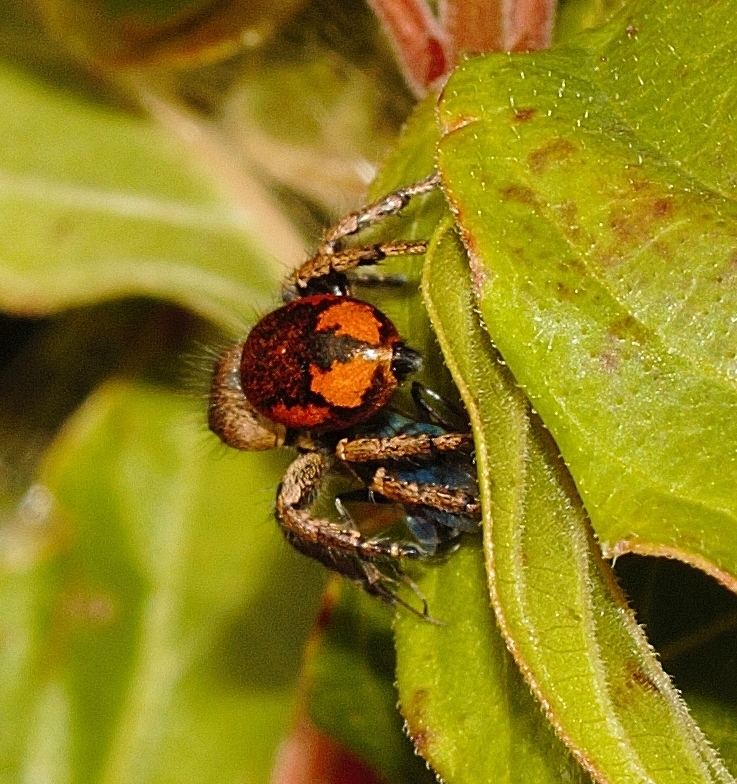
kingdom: Animalia
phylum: Arthropoda
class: Arachnida
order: Araneae
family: Salticidae
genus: Baryphas
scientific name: Baryphas ahenus
